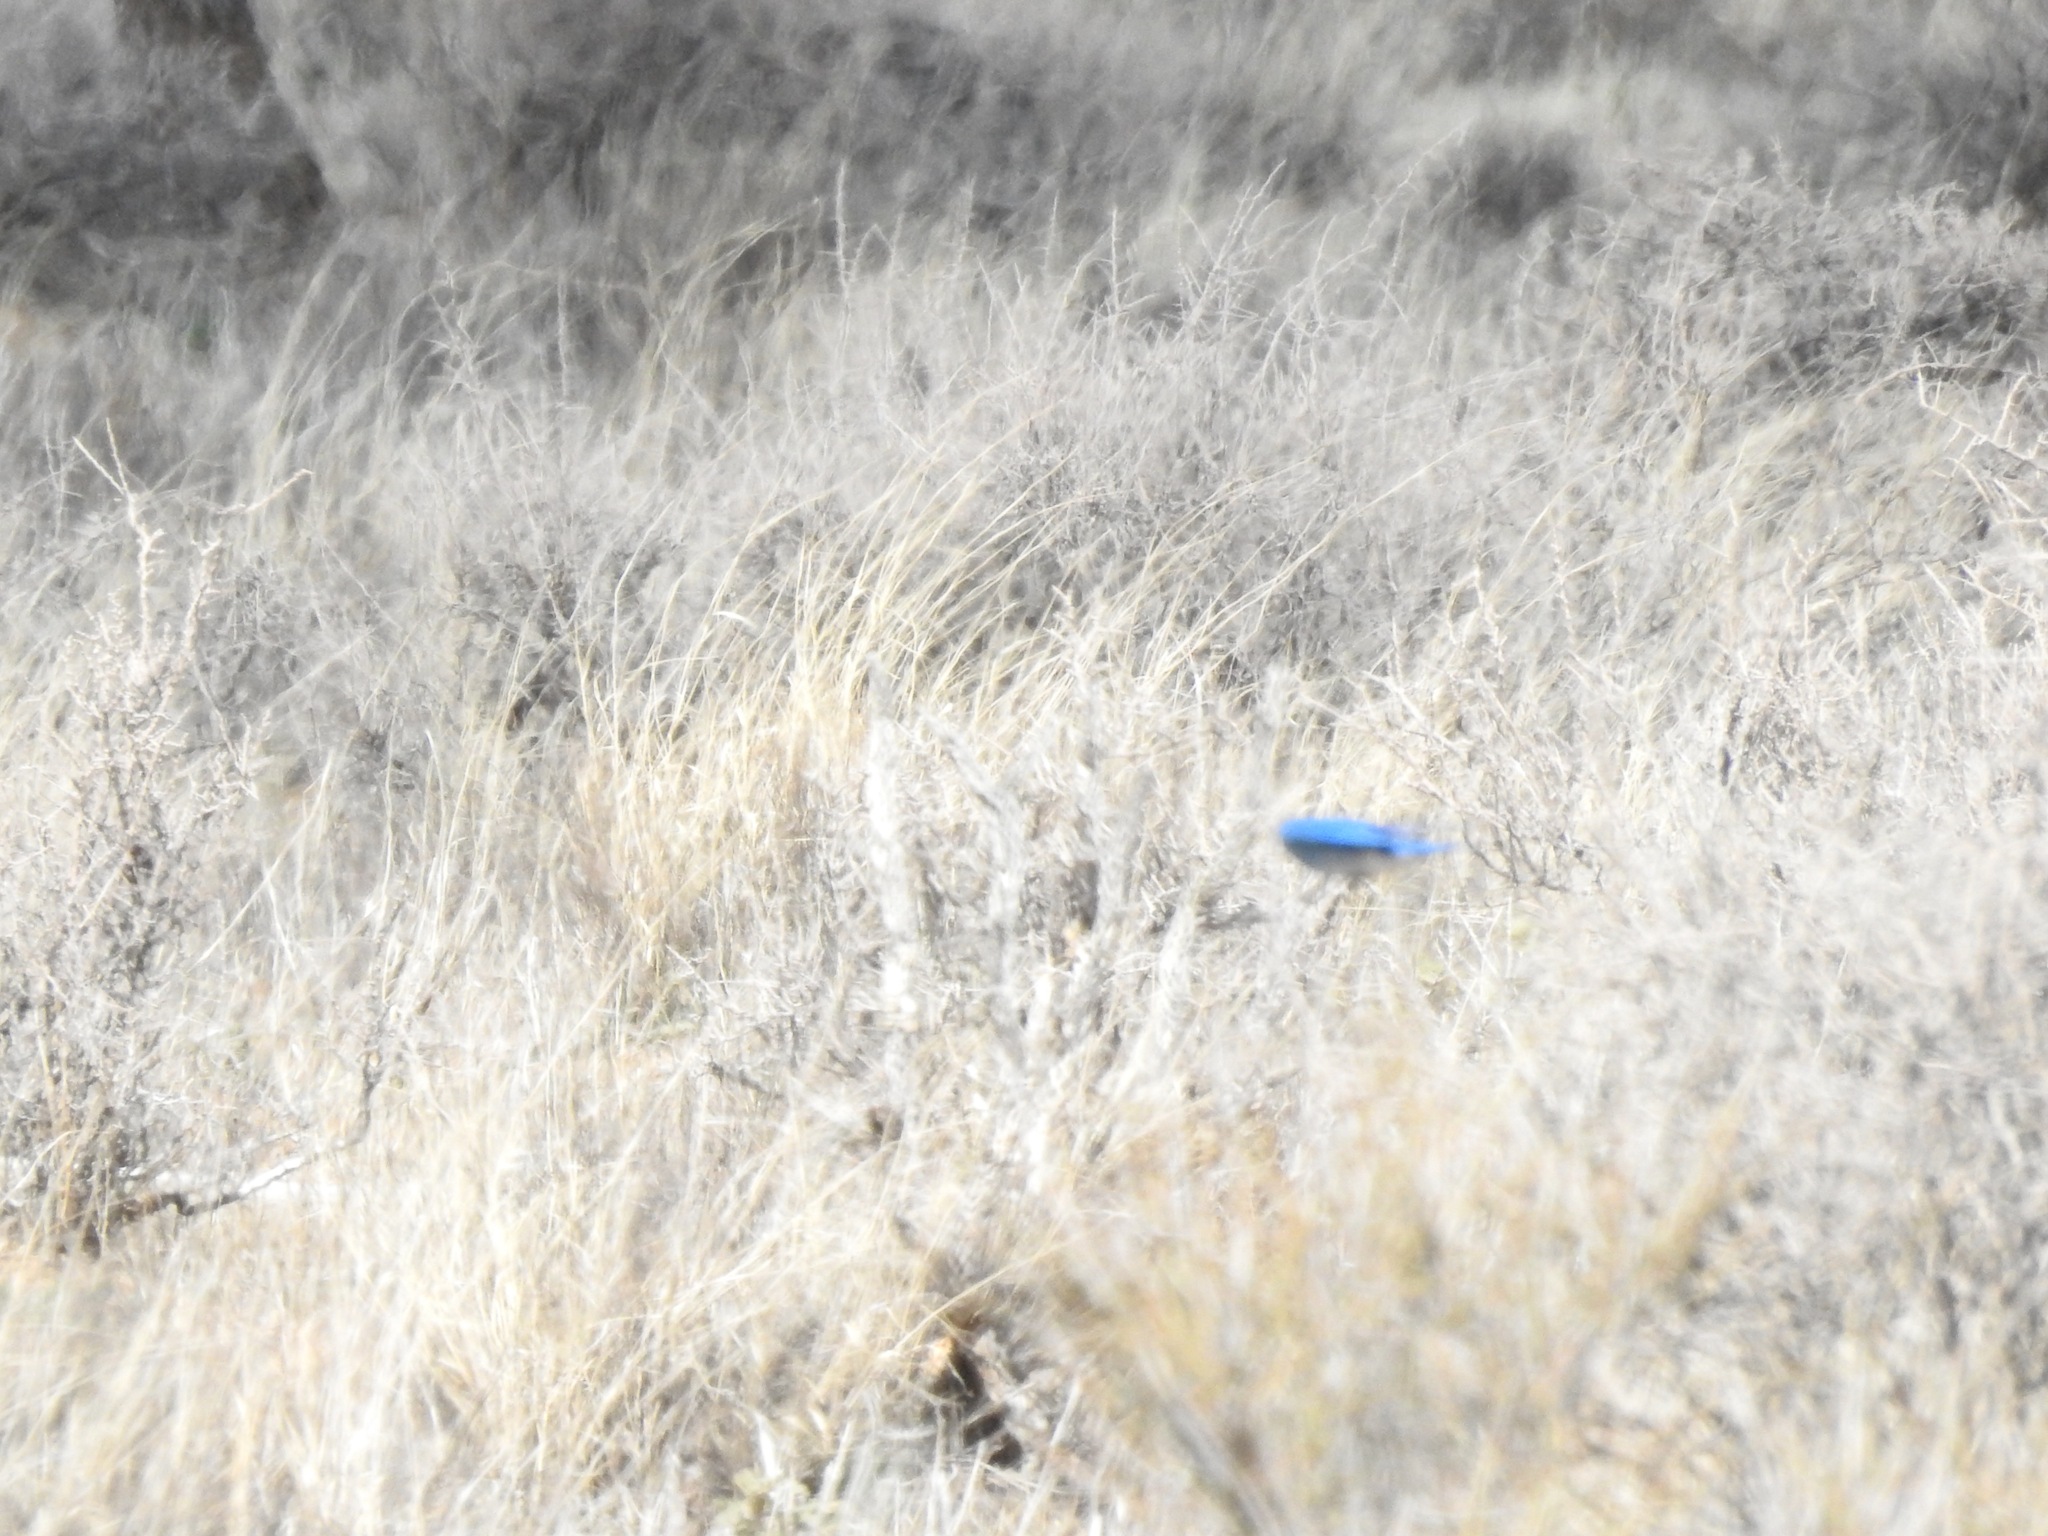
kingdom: Animalia
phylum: Chordata
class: Aves
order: Passeriformes
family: Turdidae
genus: Sialia
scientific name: Sialia currucoides
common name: Mountain bluebird
